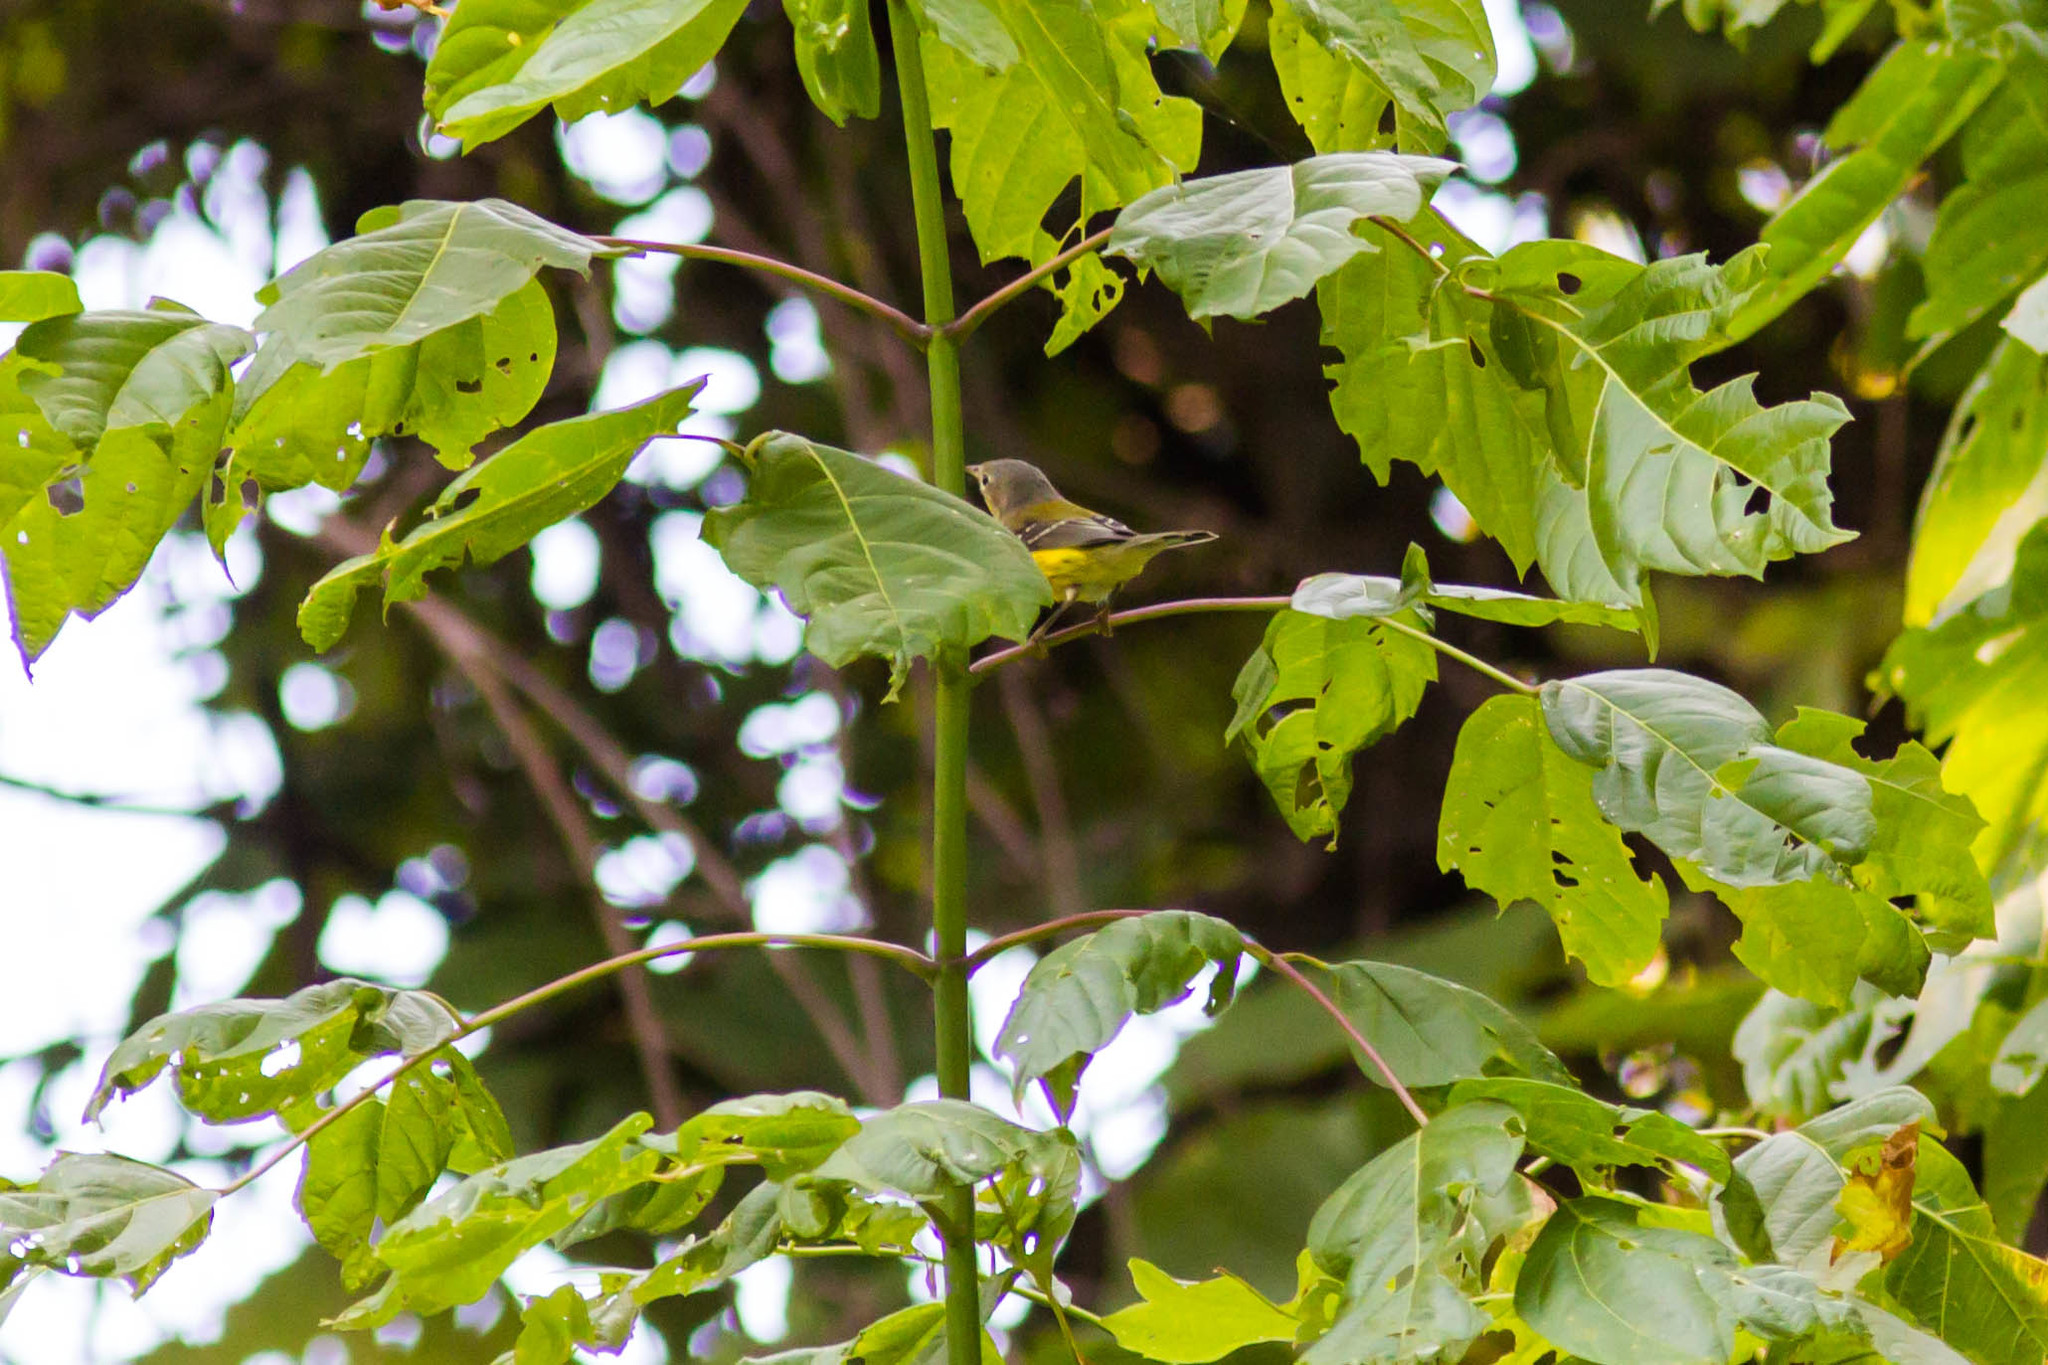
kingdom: Animalia
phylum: Chordata
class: Aves
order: Passeriformes
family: Parulidae
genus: Setophaga
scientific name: Setophaga magnolia
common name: Magnolia warbler
